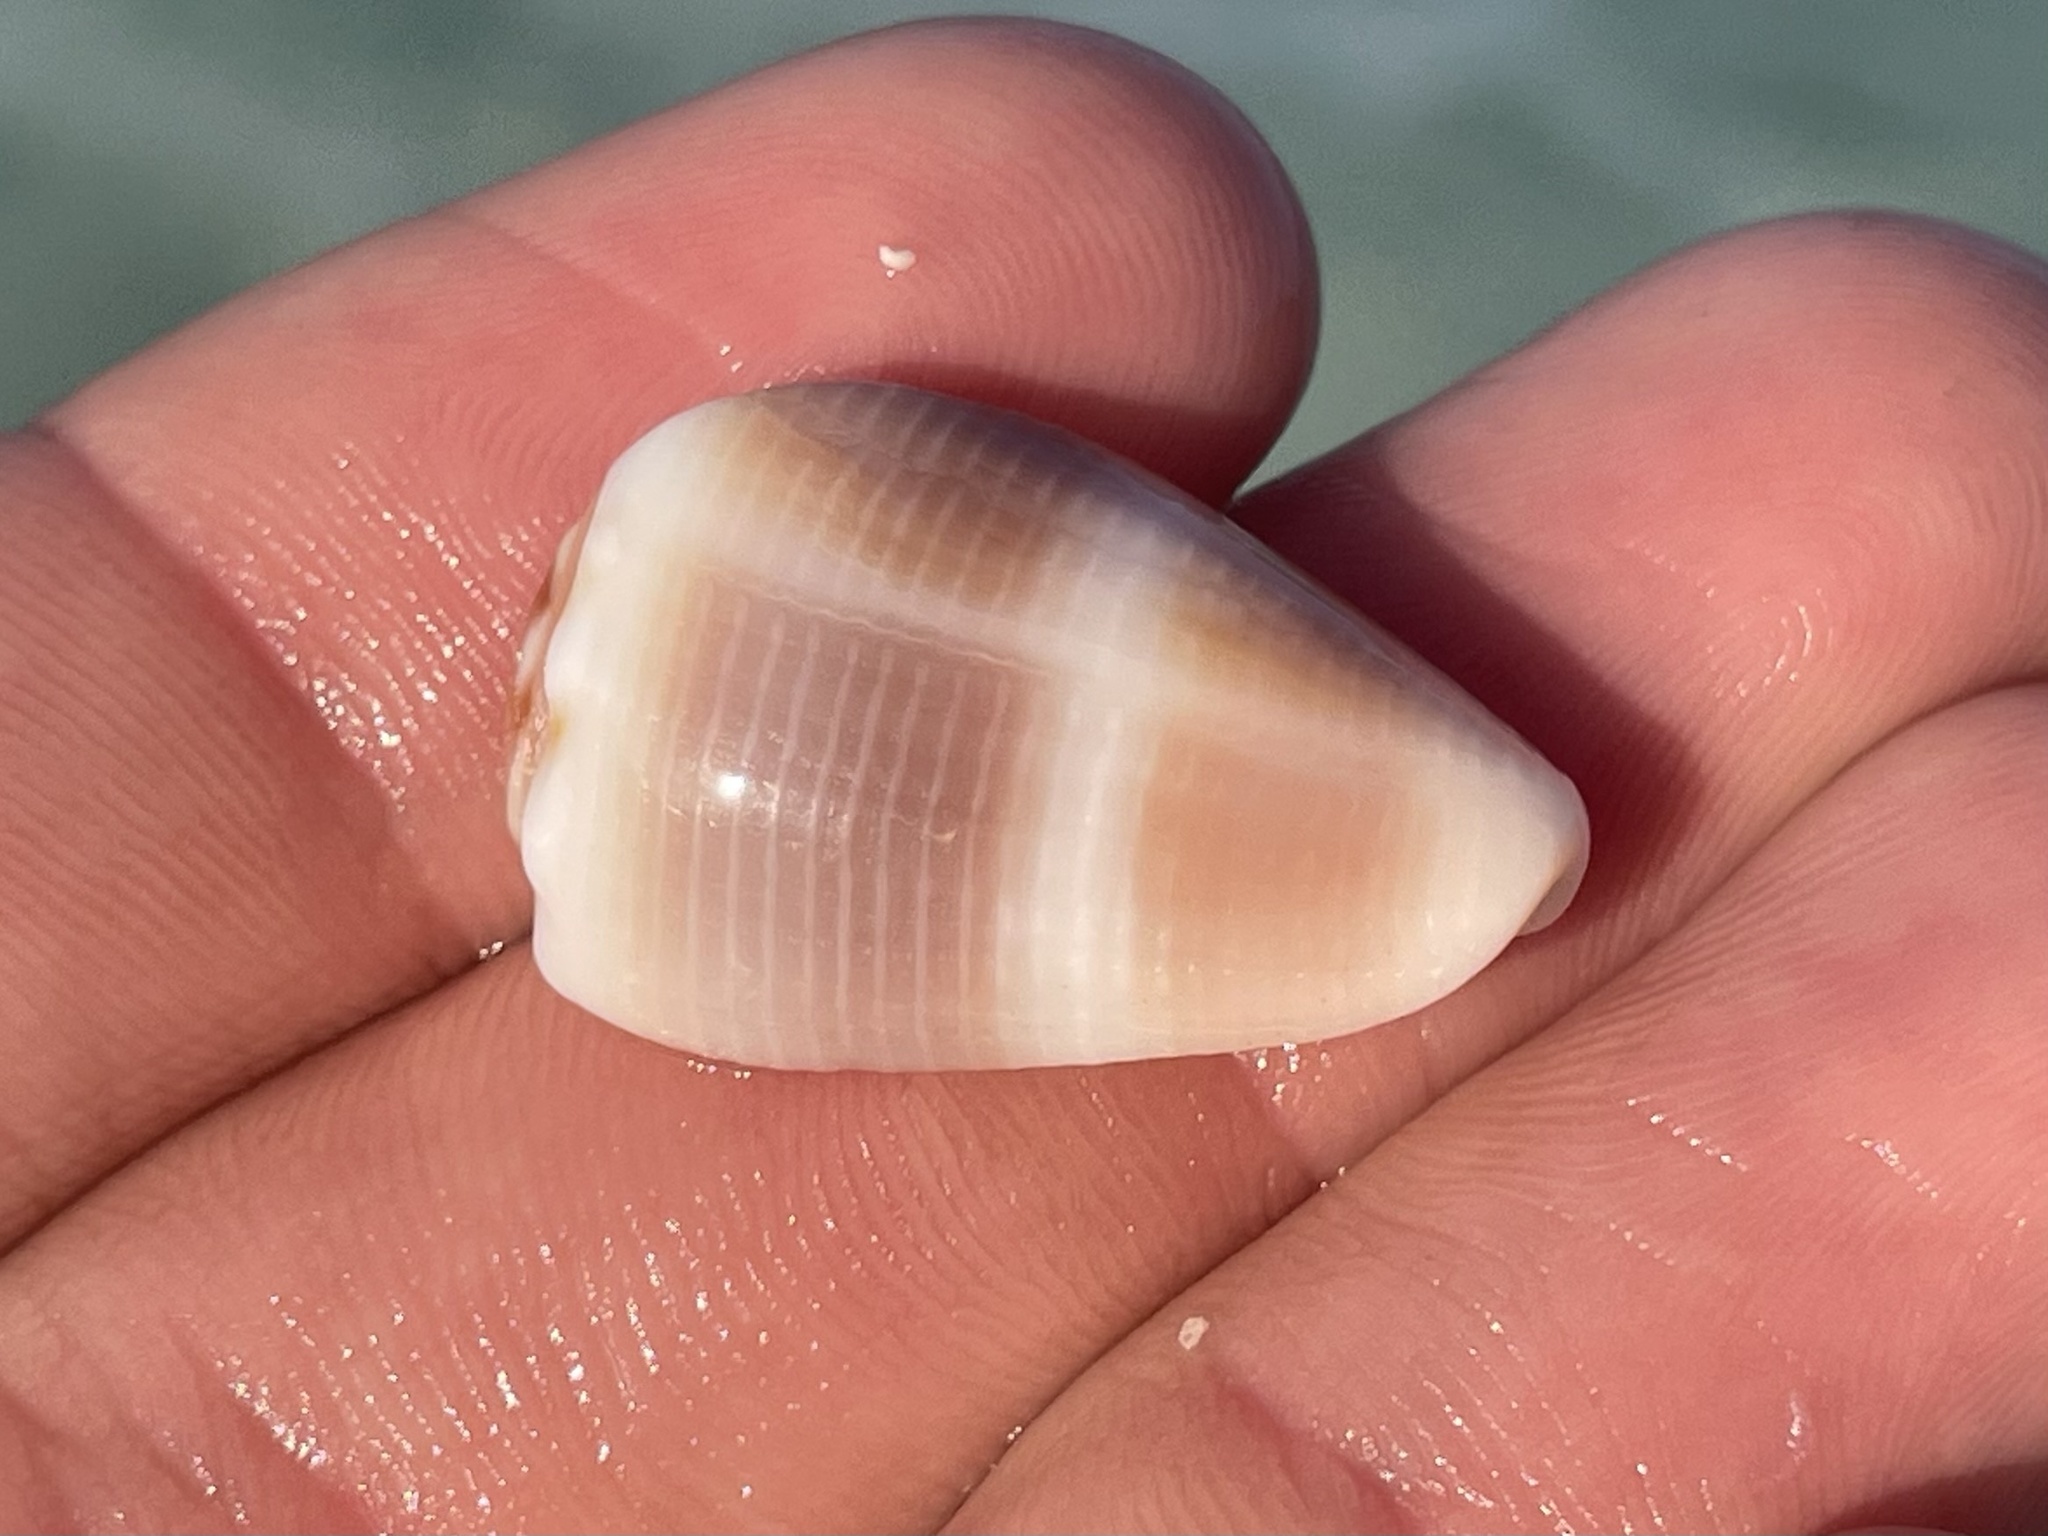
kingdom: Animalia
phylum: Mollusca
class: Gastropoda
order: Neogastropoda
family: Conidae
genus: Conus
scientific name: Conus mus
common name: Mouse cone
